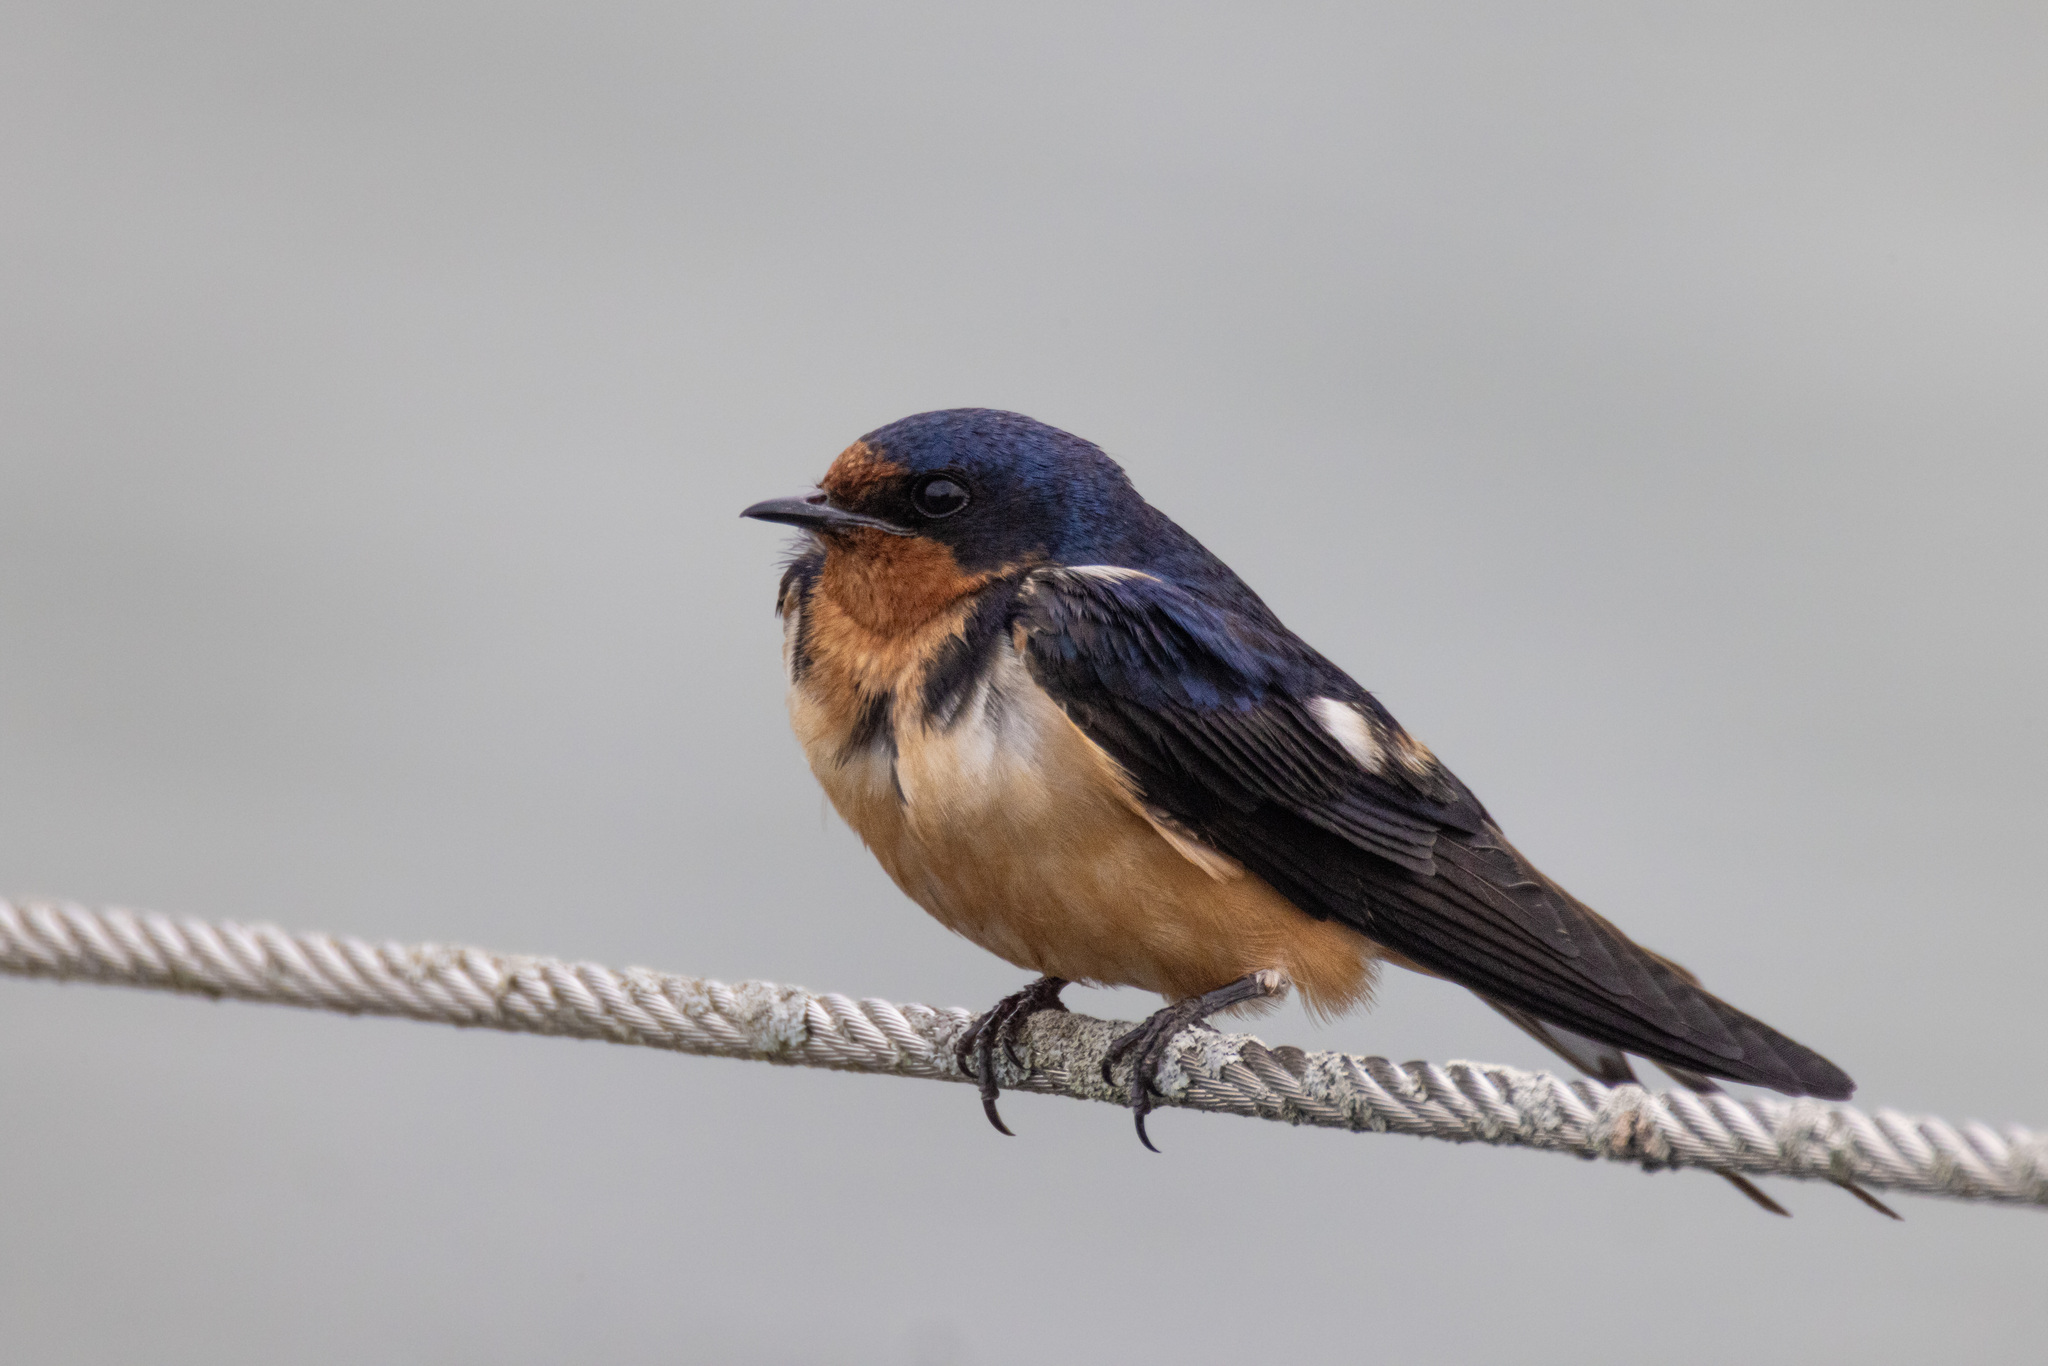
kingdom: Animalia
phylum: Chordata
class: Aves
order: Passeriformes
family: Hirundinidae
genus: Hirundo
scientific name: Hirundo rustica
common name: Barn swallow
